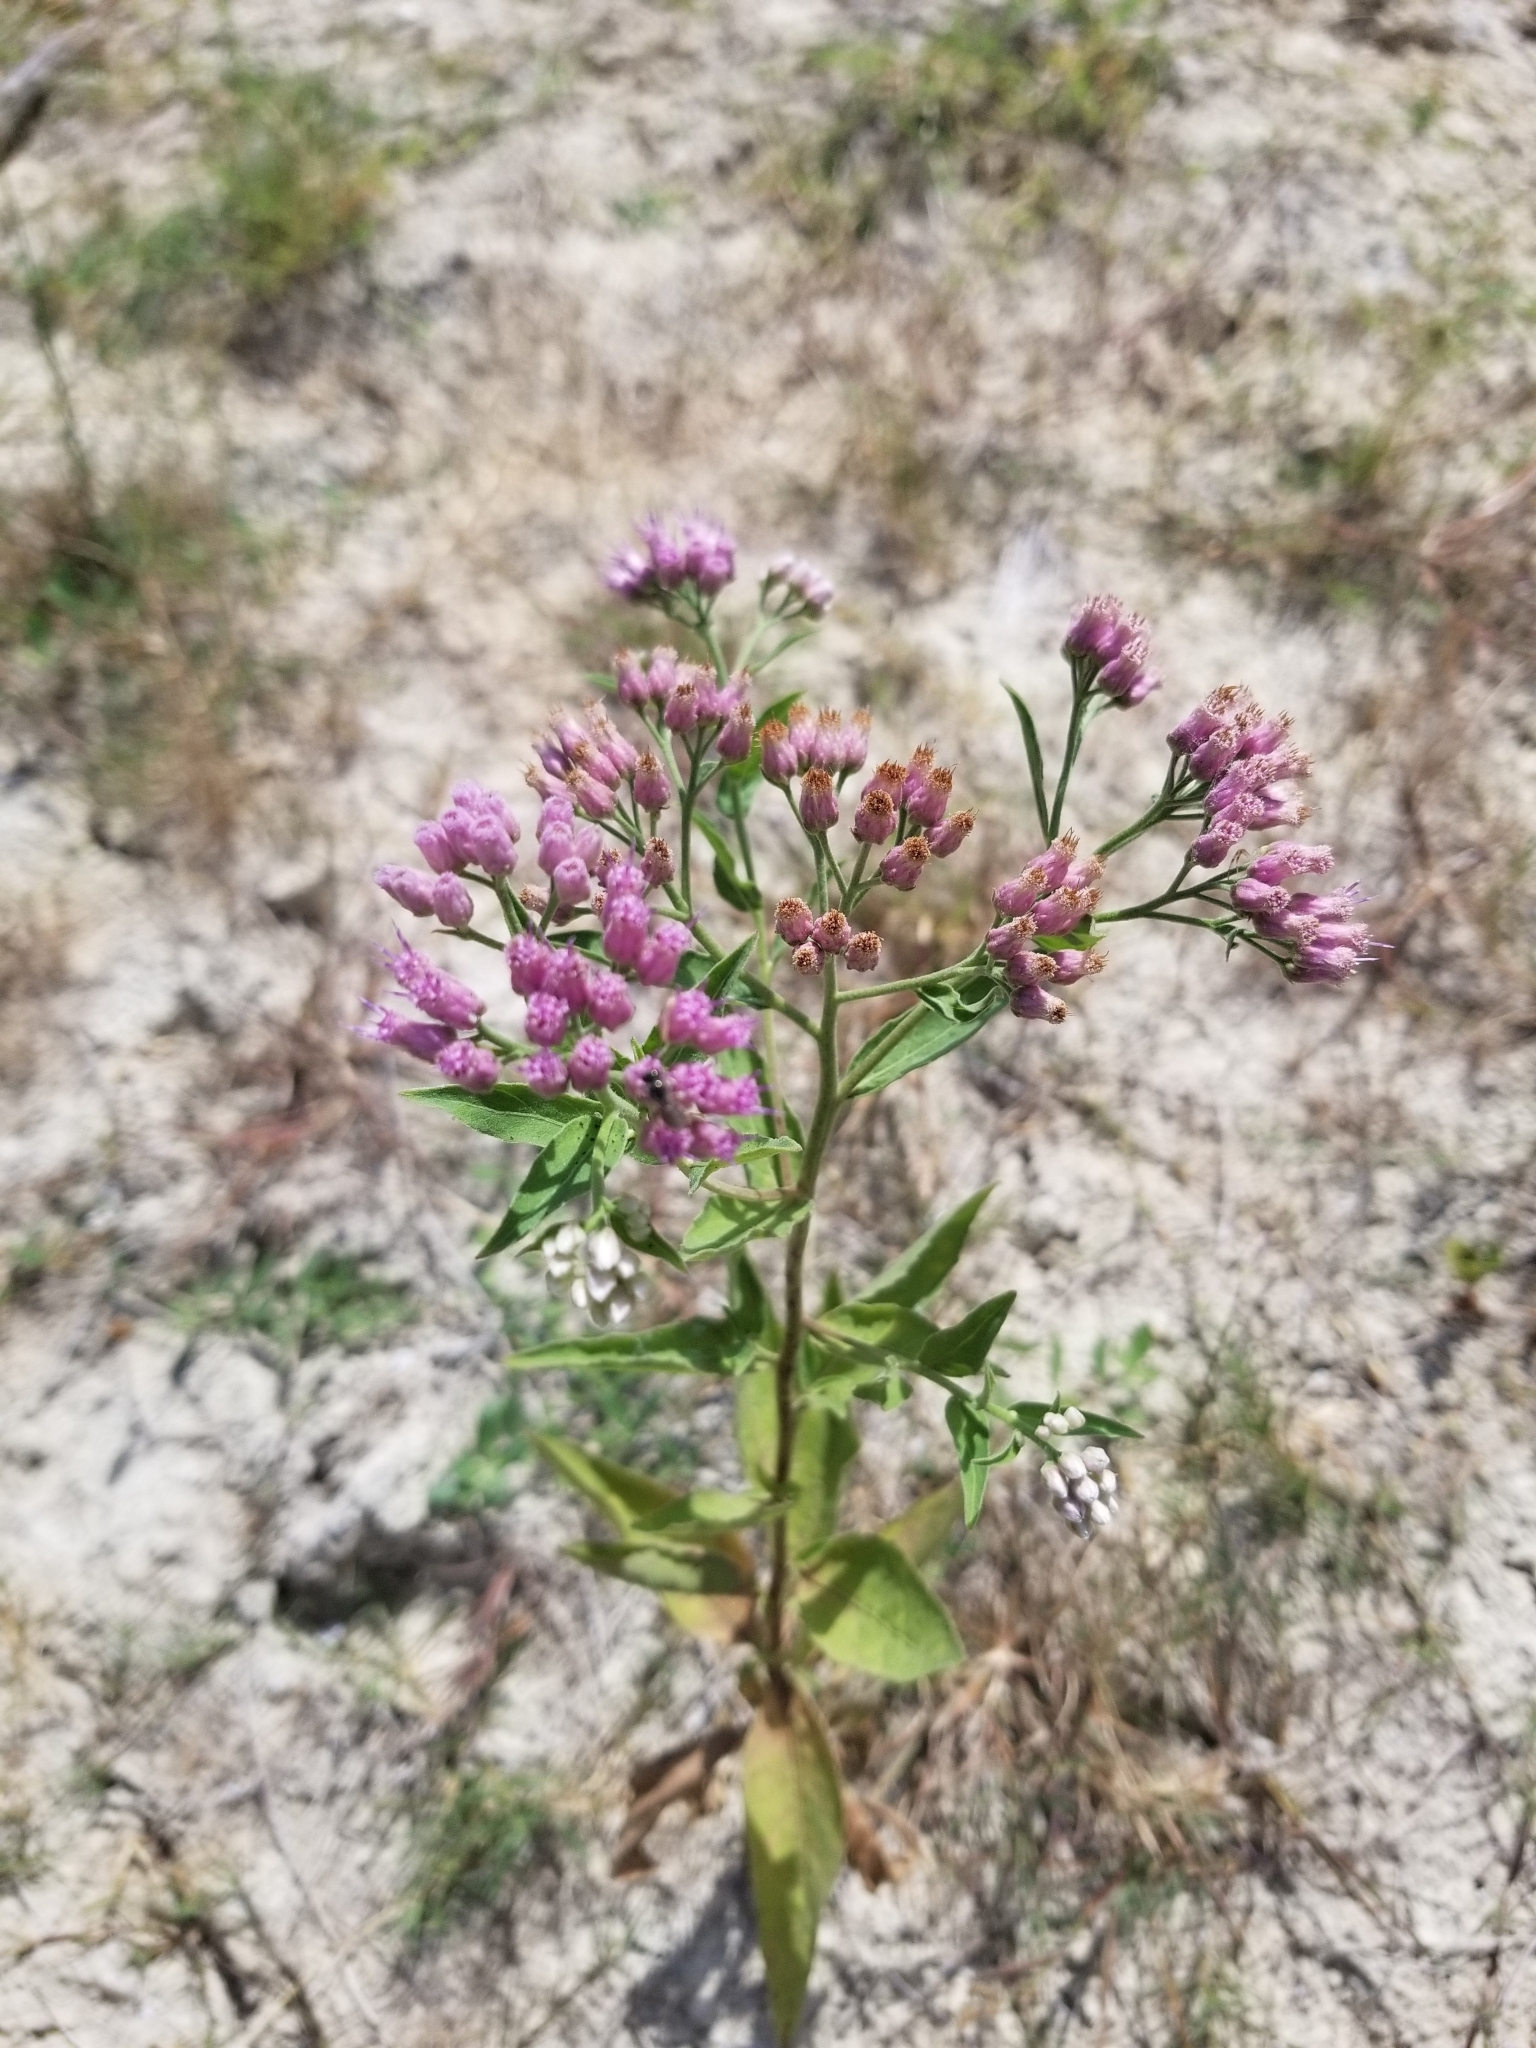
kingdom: Plantae
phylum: Tracheophyta
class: Magnoliopsida
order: Asterales
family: Asteraceae
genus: Pluchea
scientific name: Pluchea odorata
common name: Saltmarsh fleabane
